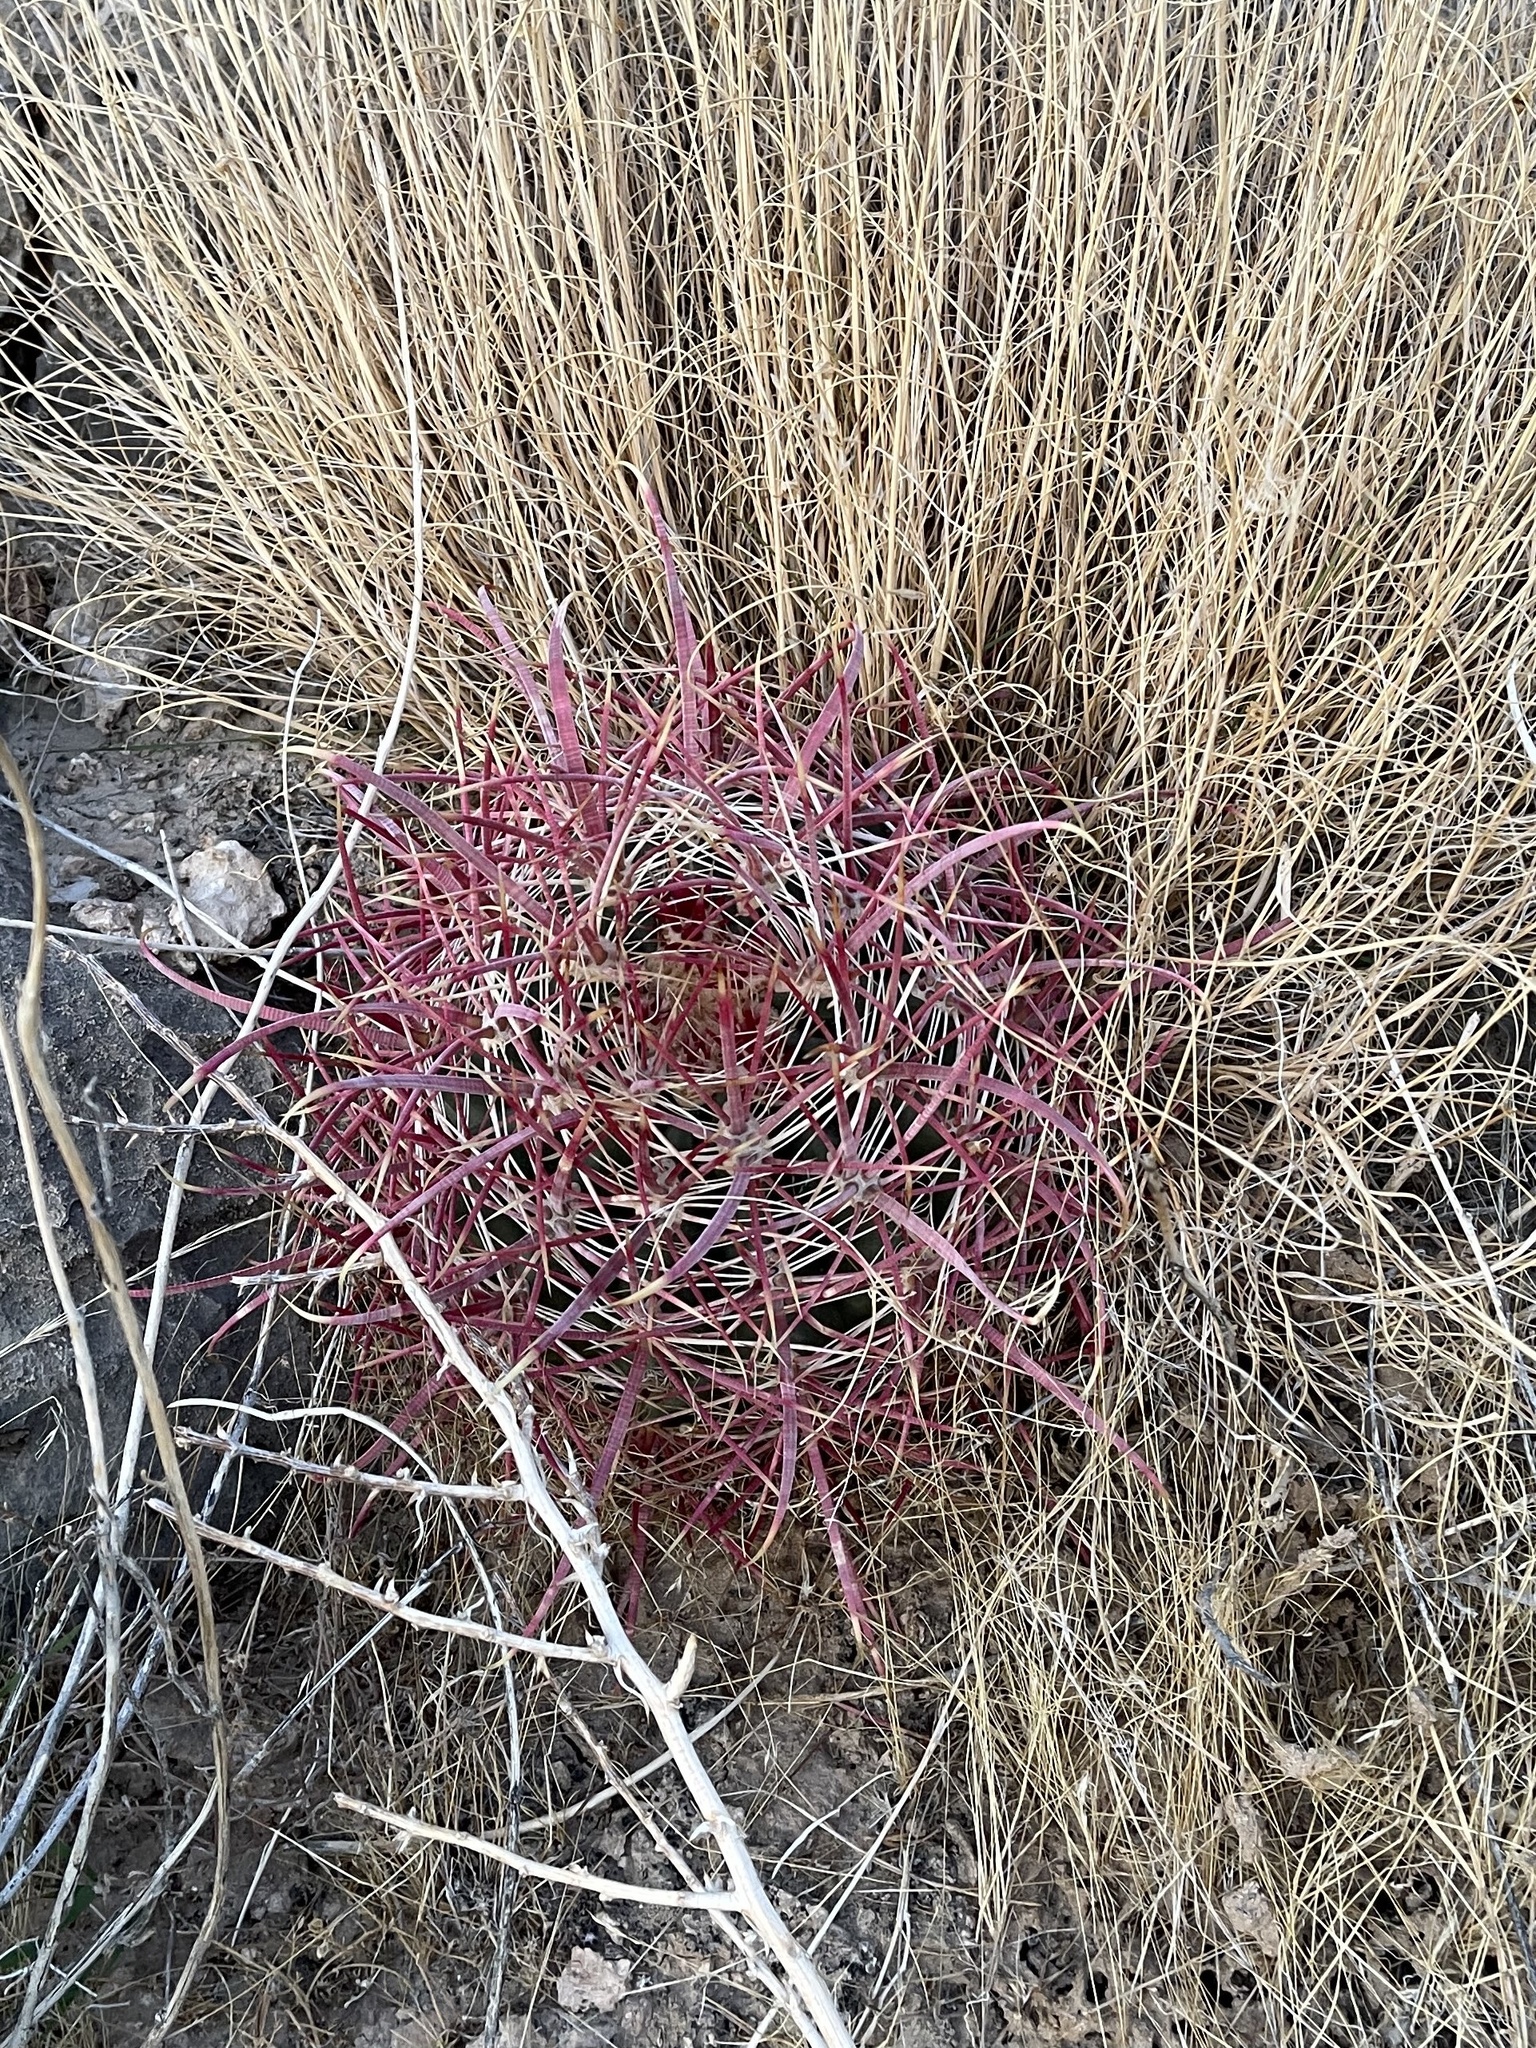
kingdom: Plantae
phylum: Tracheophyta
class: Magnoliopsida
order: Caryophyllales
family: Cactaceae
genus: Ferocactus
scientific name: Ferocactus cylindraceus
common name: California barrel cactus
